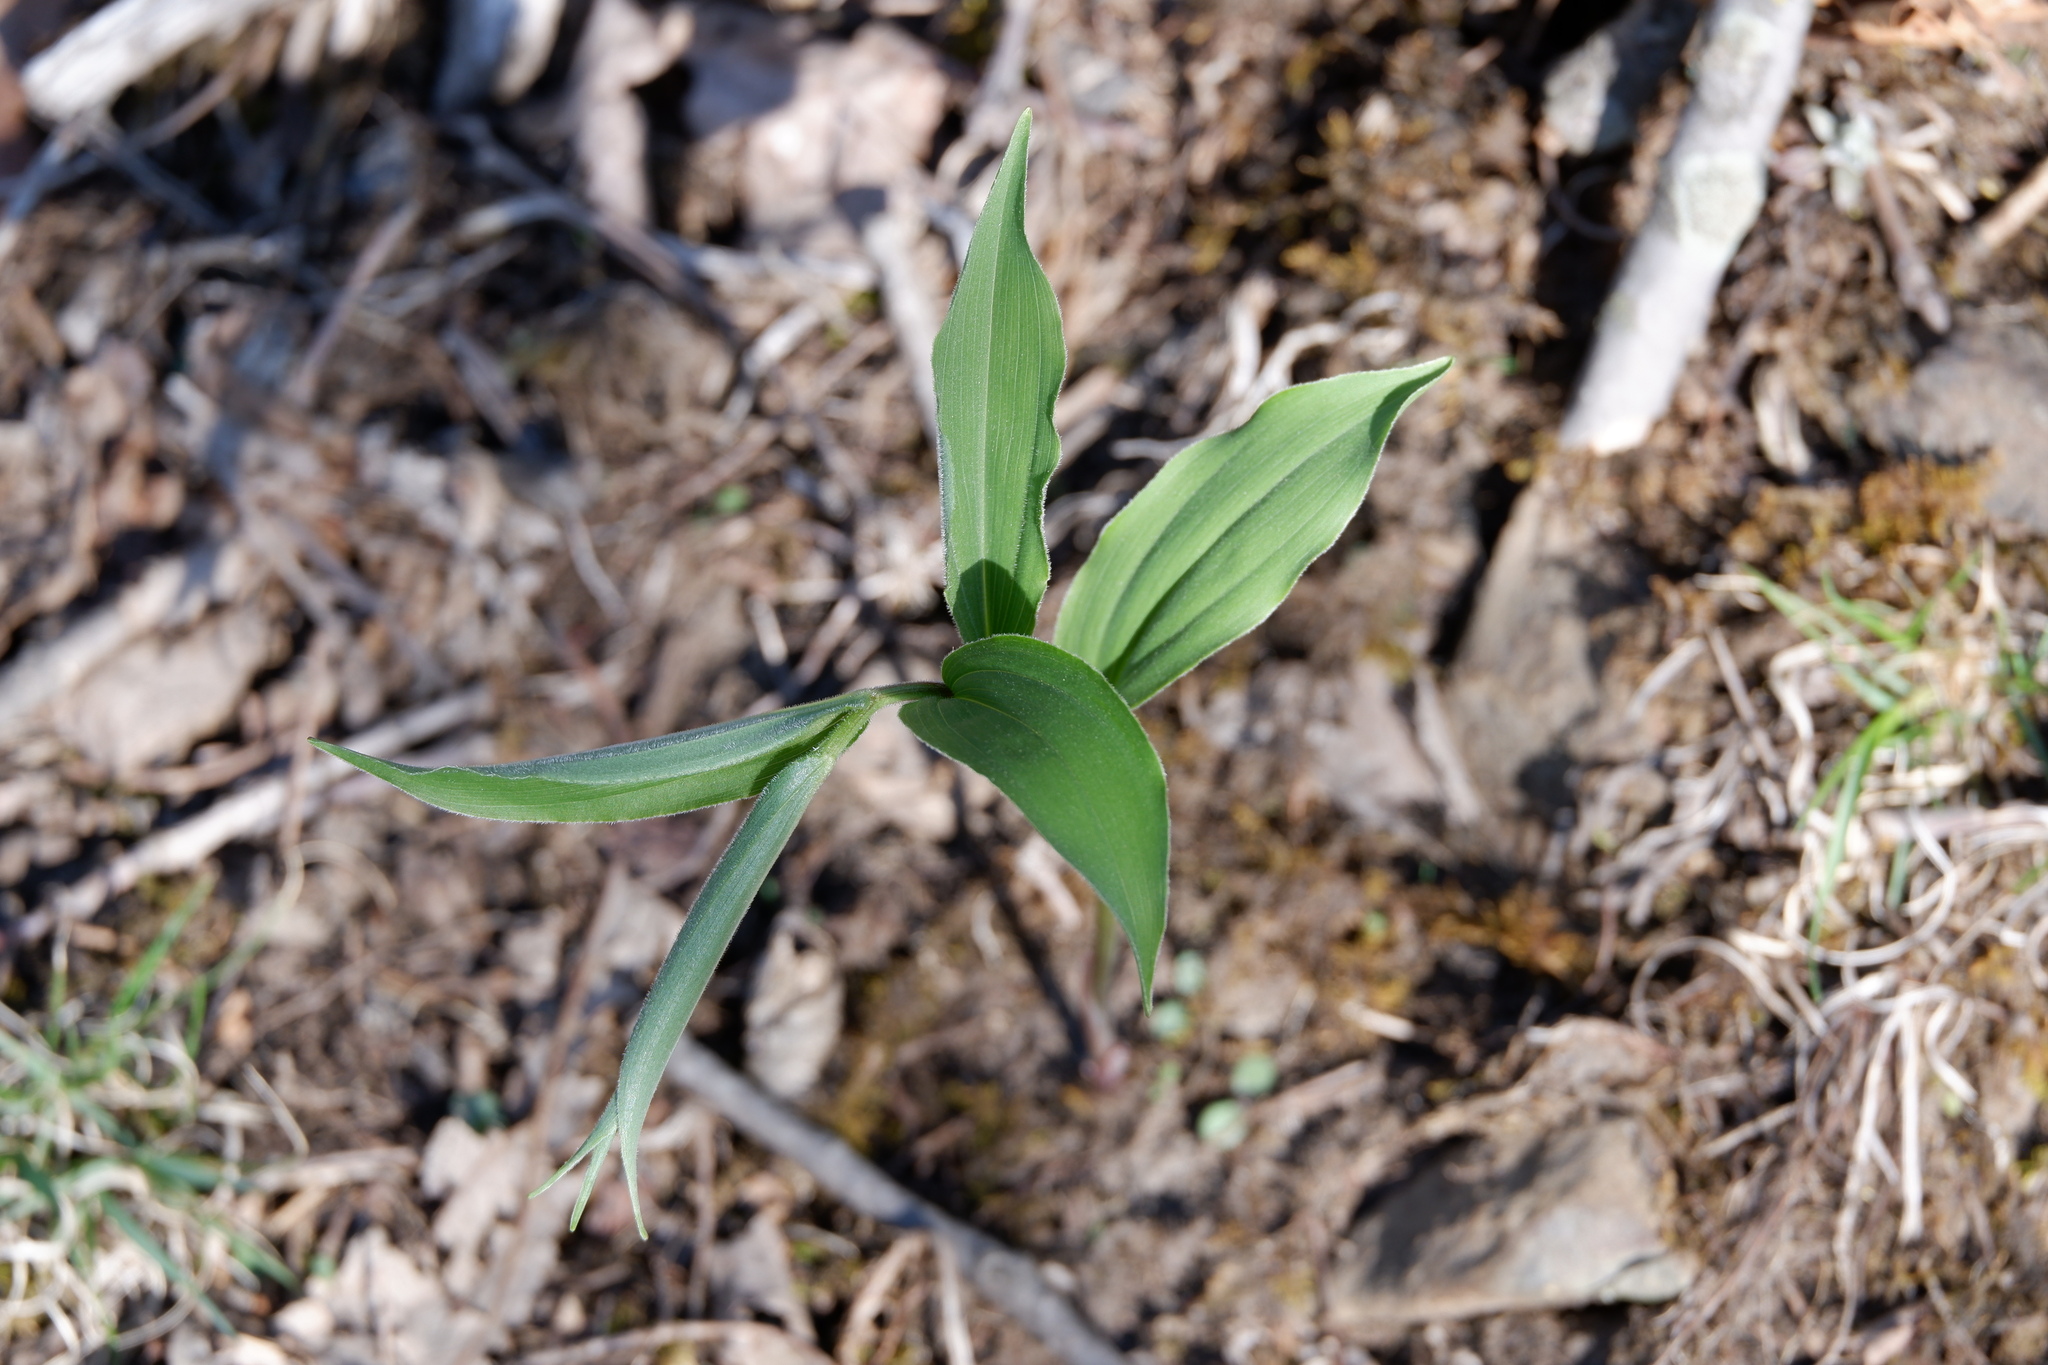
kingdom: Plantae
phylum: Tracheophyta
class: Liliopsida
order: Asparagales
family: Asparagaceae
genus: Maianthemum
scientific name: Maianthemum racemosum
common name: False spikenard
